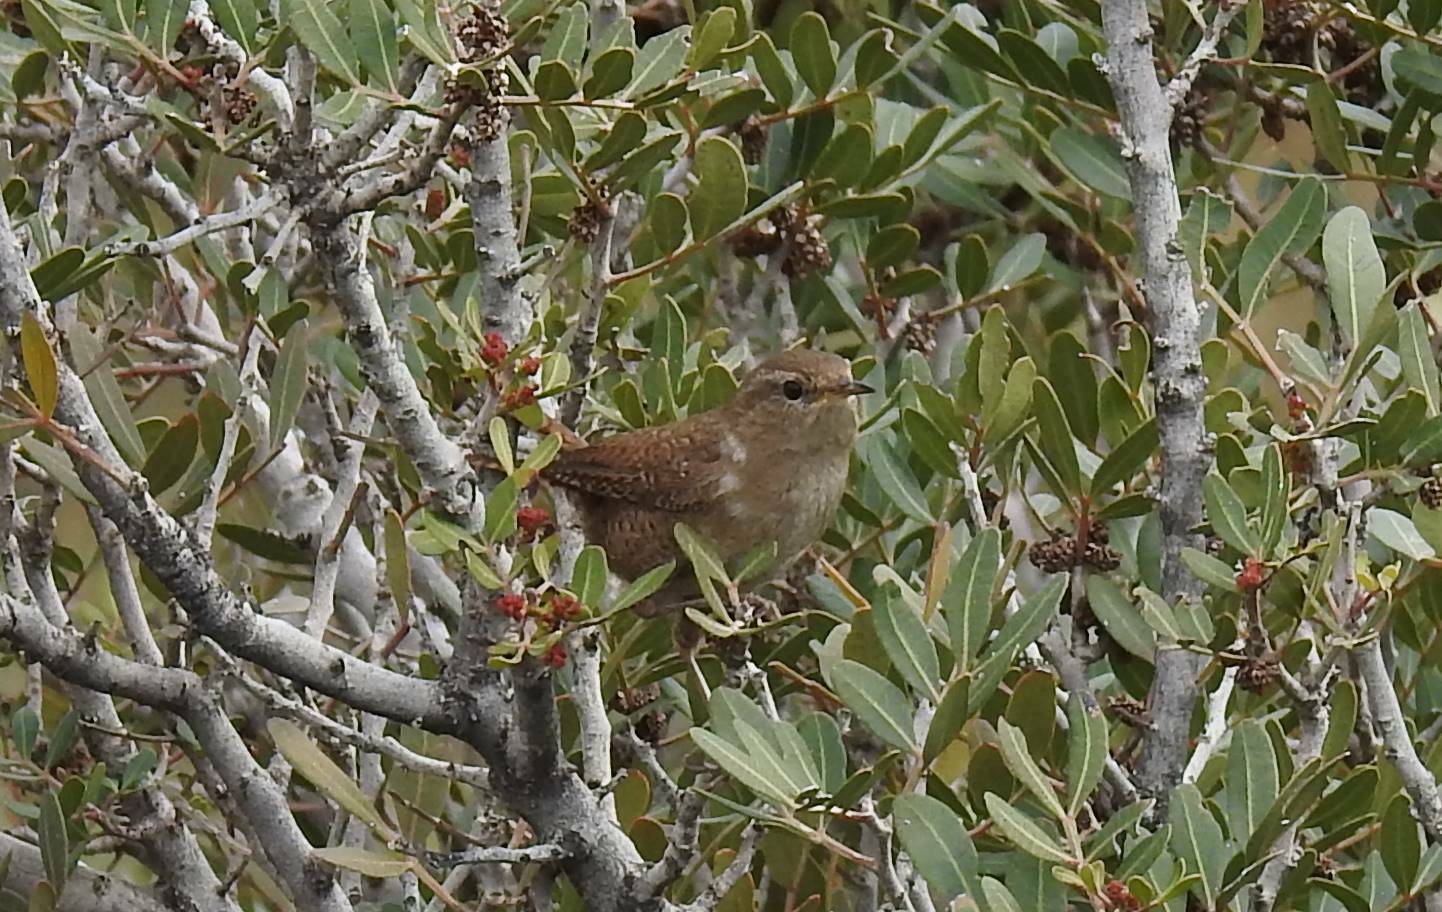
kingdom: Animalia
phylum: Chordata
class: Aves
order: Passeriformes
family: Troglodytidae
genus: Troglodytes
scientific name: Troglodytes troglodytes
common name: Eurasian wren
